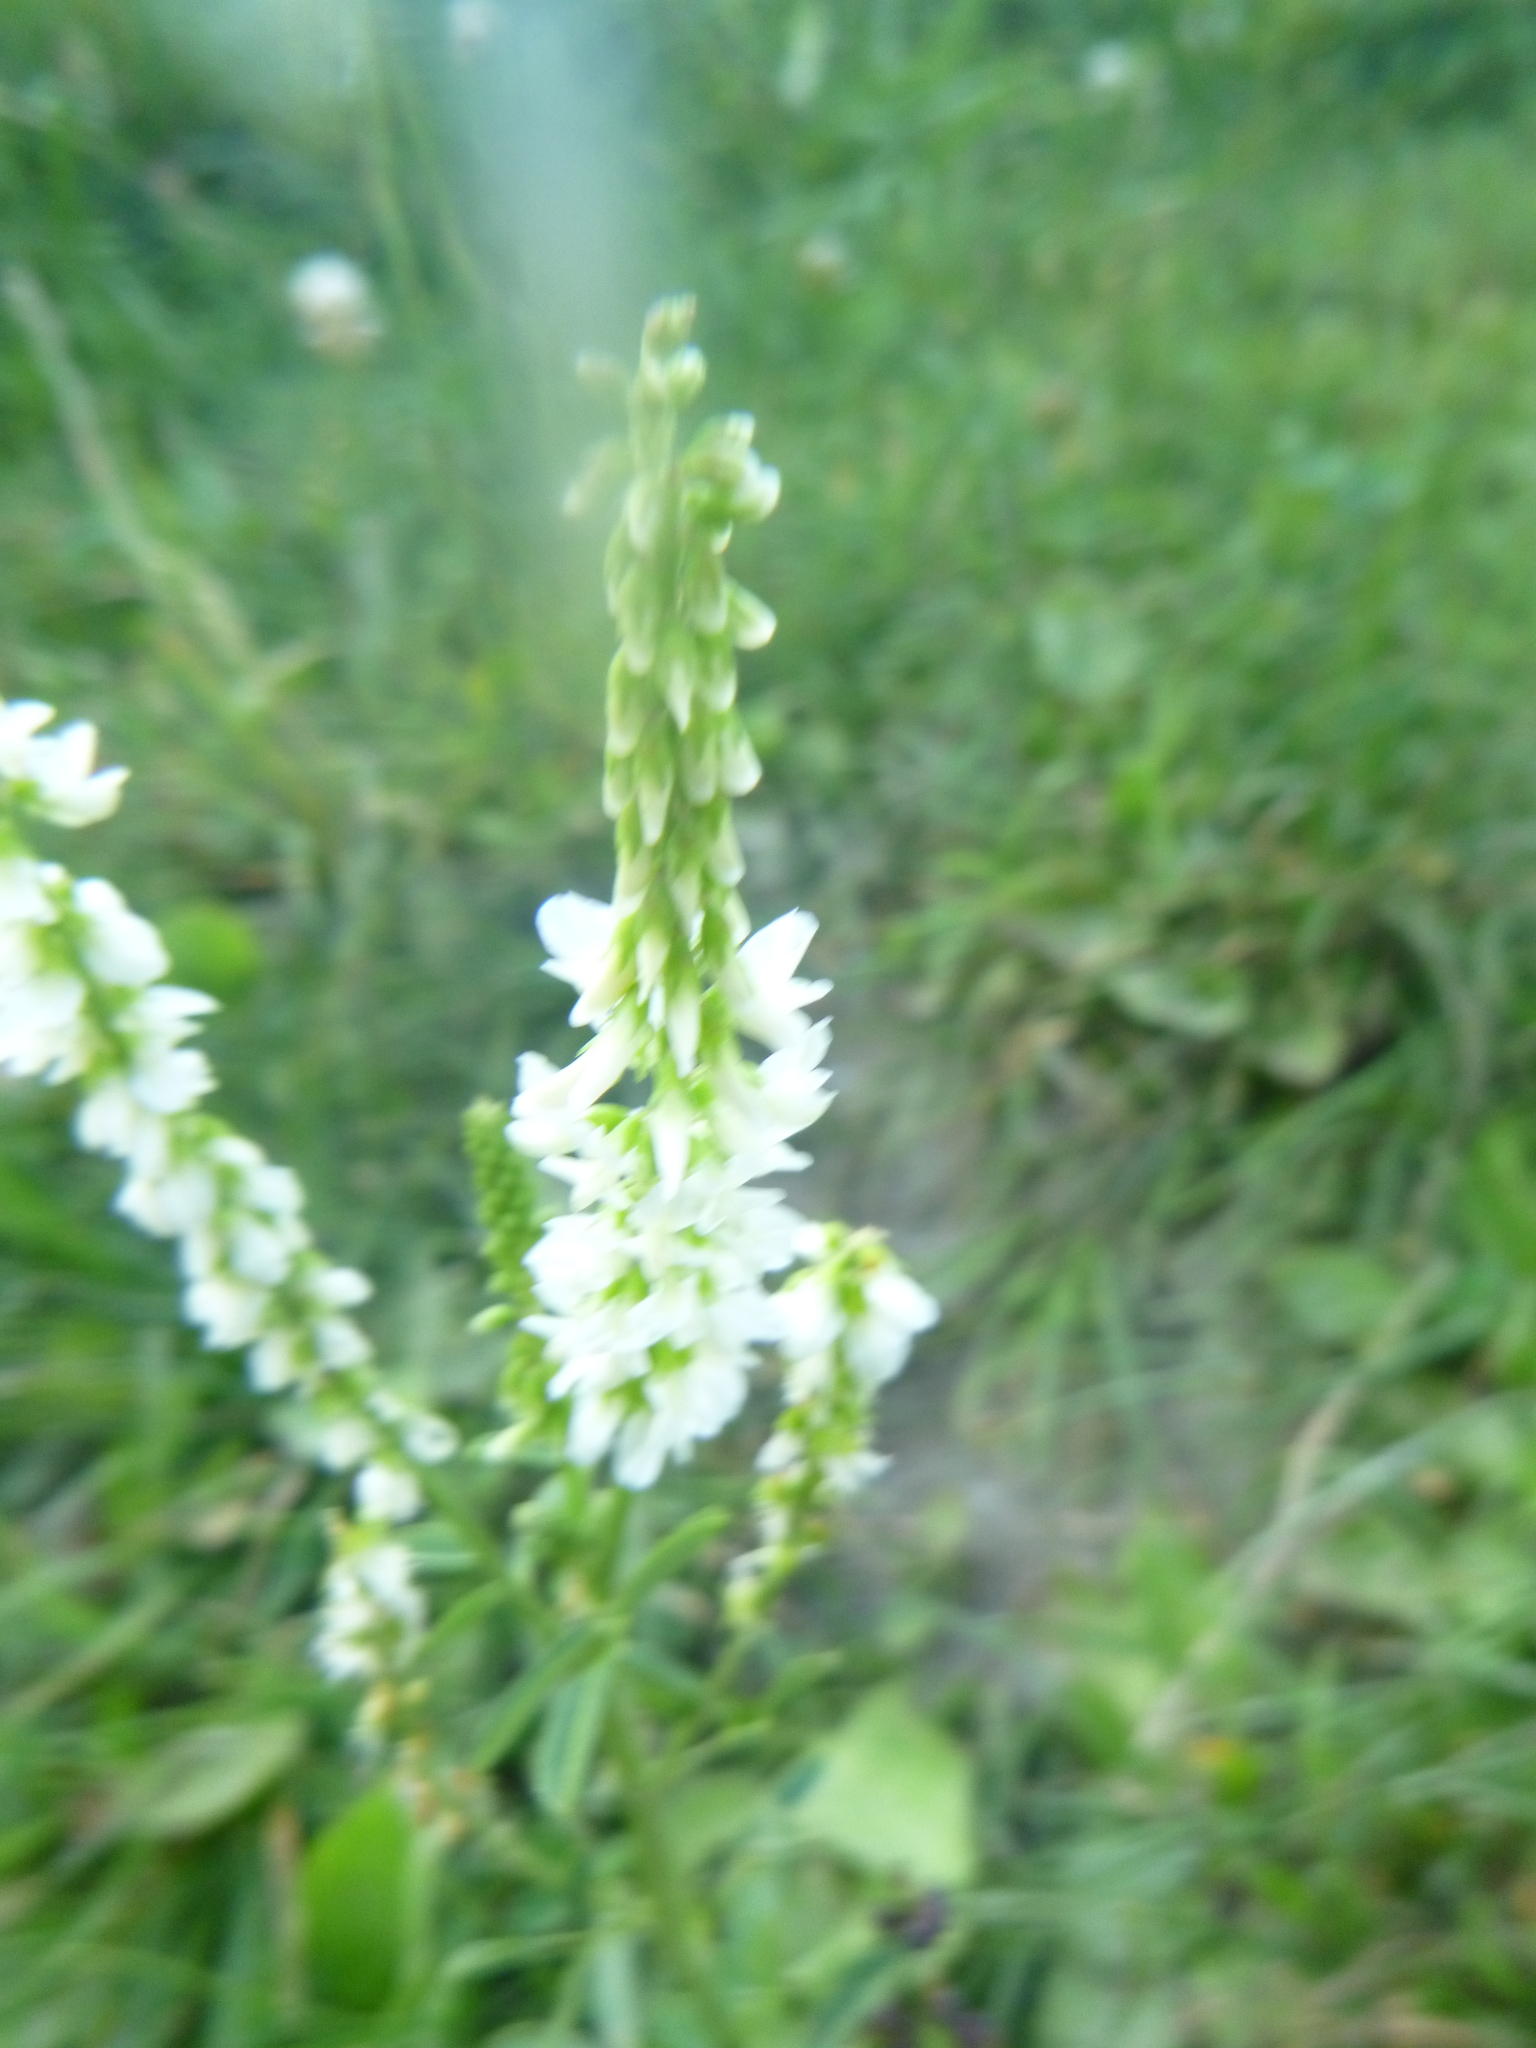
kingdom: Plantae
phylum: Tracheophyta
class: Magnoliopsida
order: Fabales
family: Fabaceae
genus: Melilotus
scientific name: Melilotus albus
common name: White melilot
